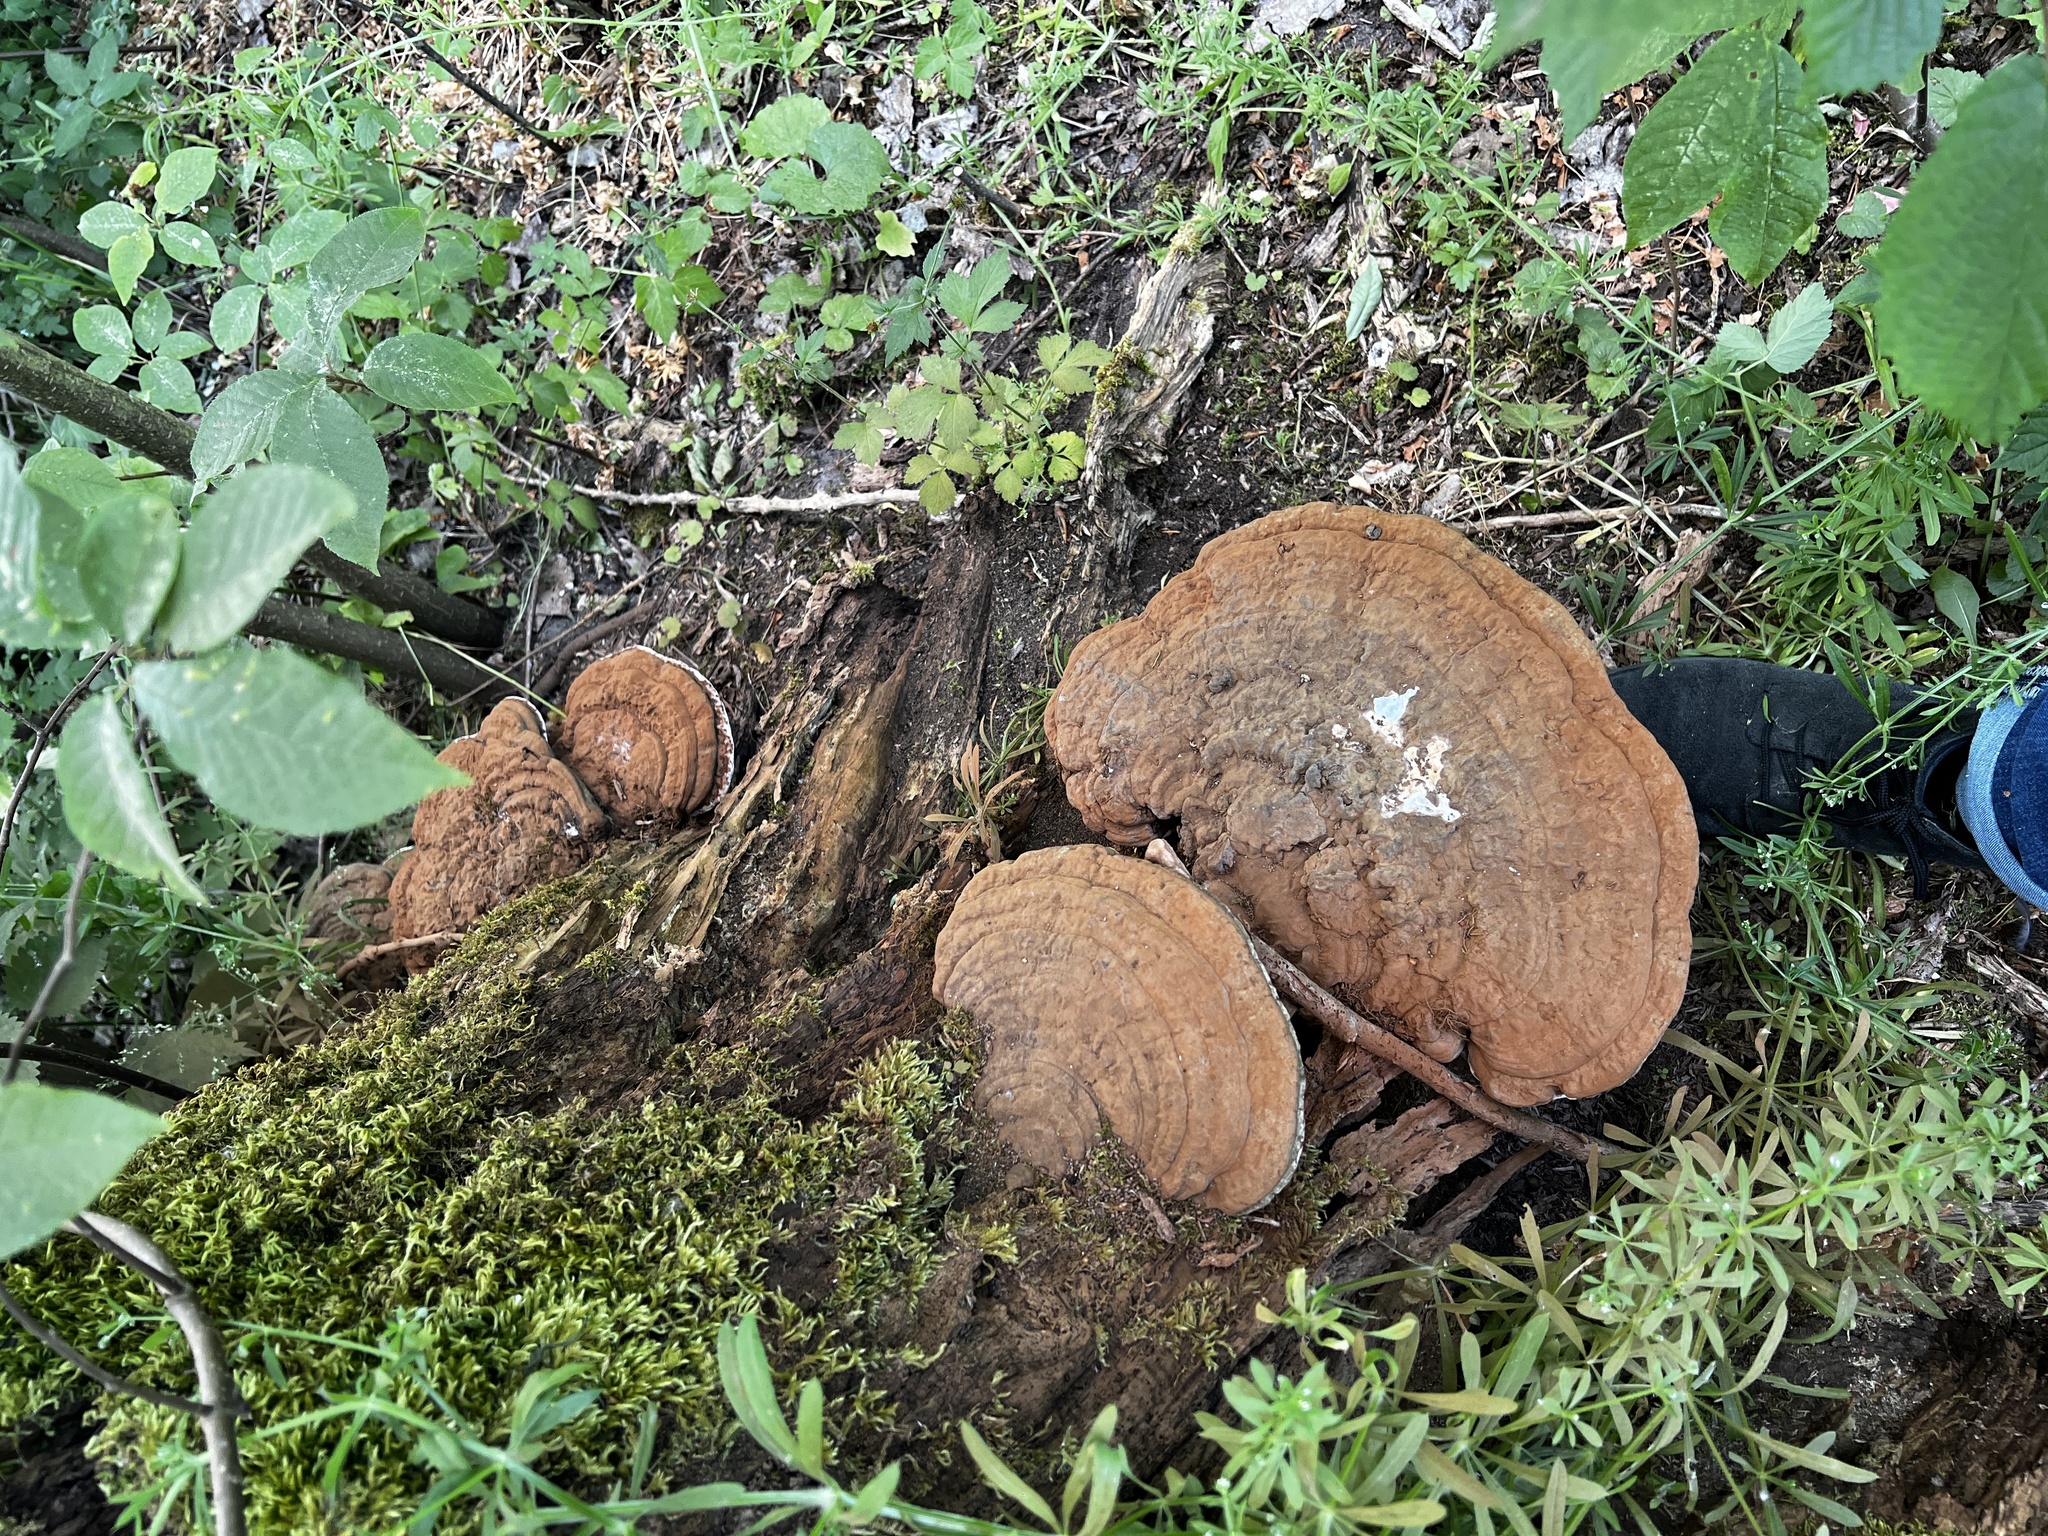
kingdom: Fungi
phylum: Basidiomycota
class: Agaricomycetes
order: Polyporales
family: Polyporaceae
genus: Ganoderma
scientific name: Ganoderma applanatum
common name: Artist's bracket
